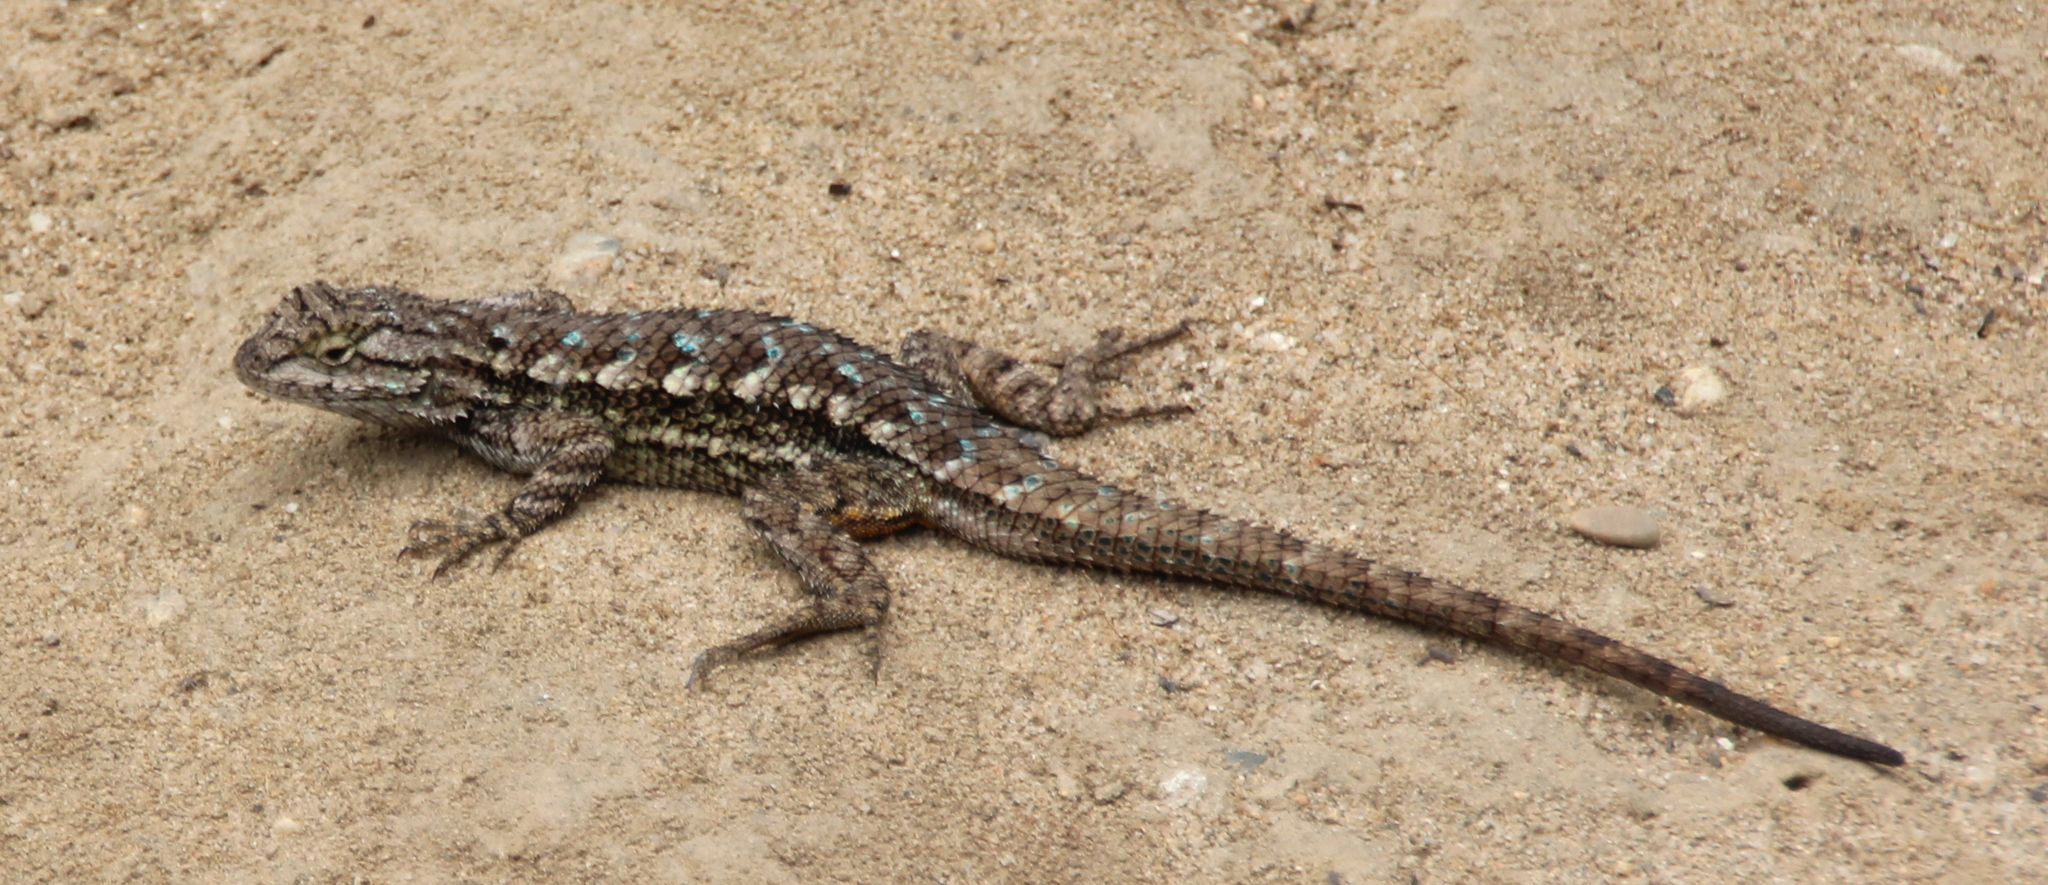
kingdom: Animalia
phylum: Chordata
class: Squamata
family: Phrynosomatidae
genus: Sceloporus
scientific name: Sceloporus occidentalis
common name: Western fence lizard
